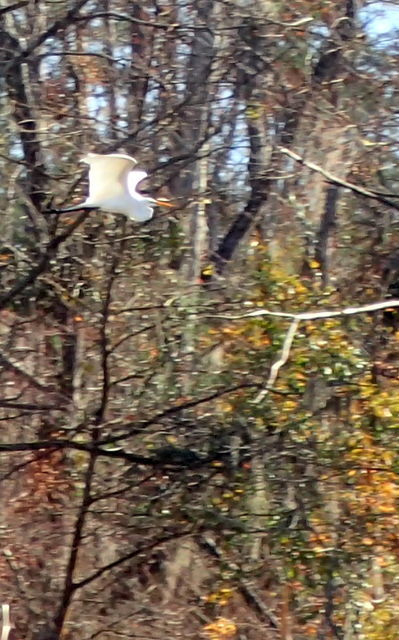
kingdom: Animalia
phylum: Chordata
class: Aves
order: Pelecaniformes
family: Ardeidae
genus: Ardea
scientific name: Ardea alba
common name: Great egret
